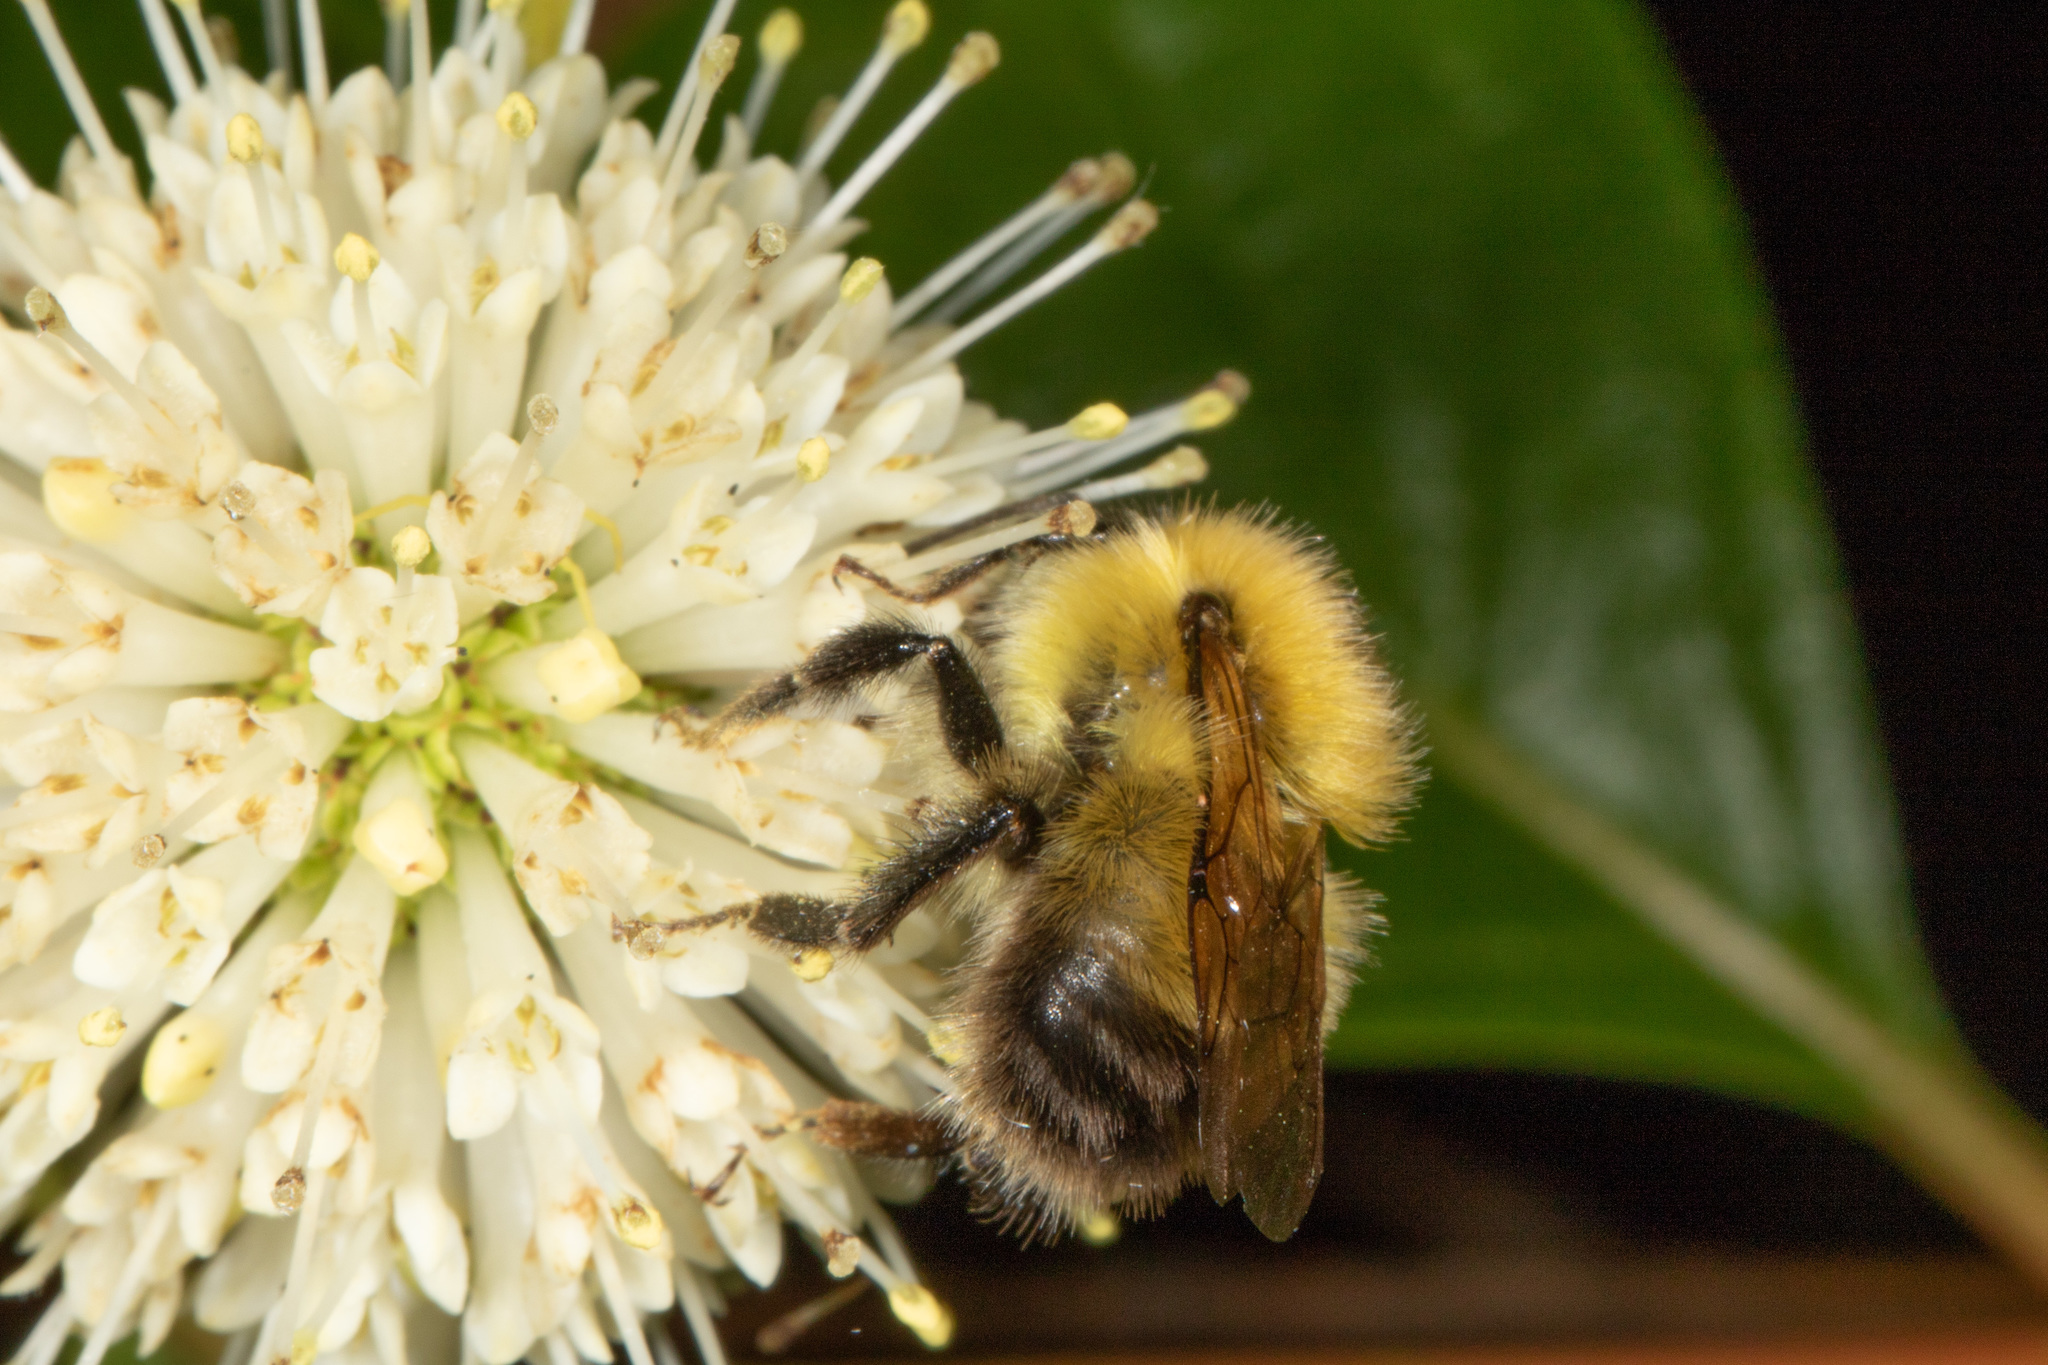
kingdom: Animalia
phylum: Arthropoda
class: Insecta
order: Hymenoptera
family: Apidae
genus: Bombus
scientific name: Bombus perplexus
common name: Confusing bumble bee
